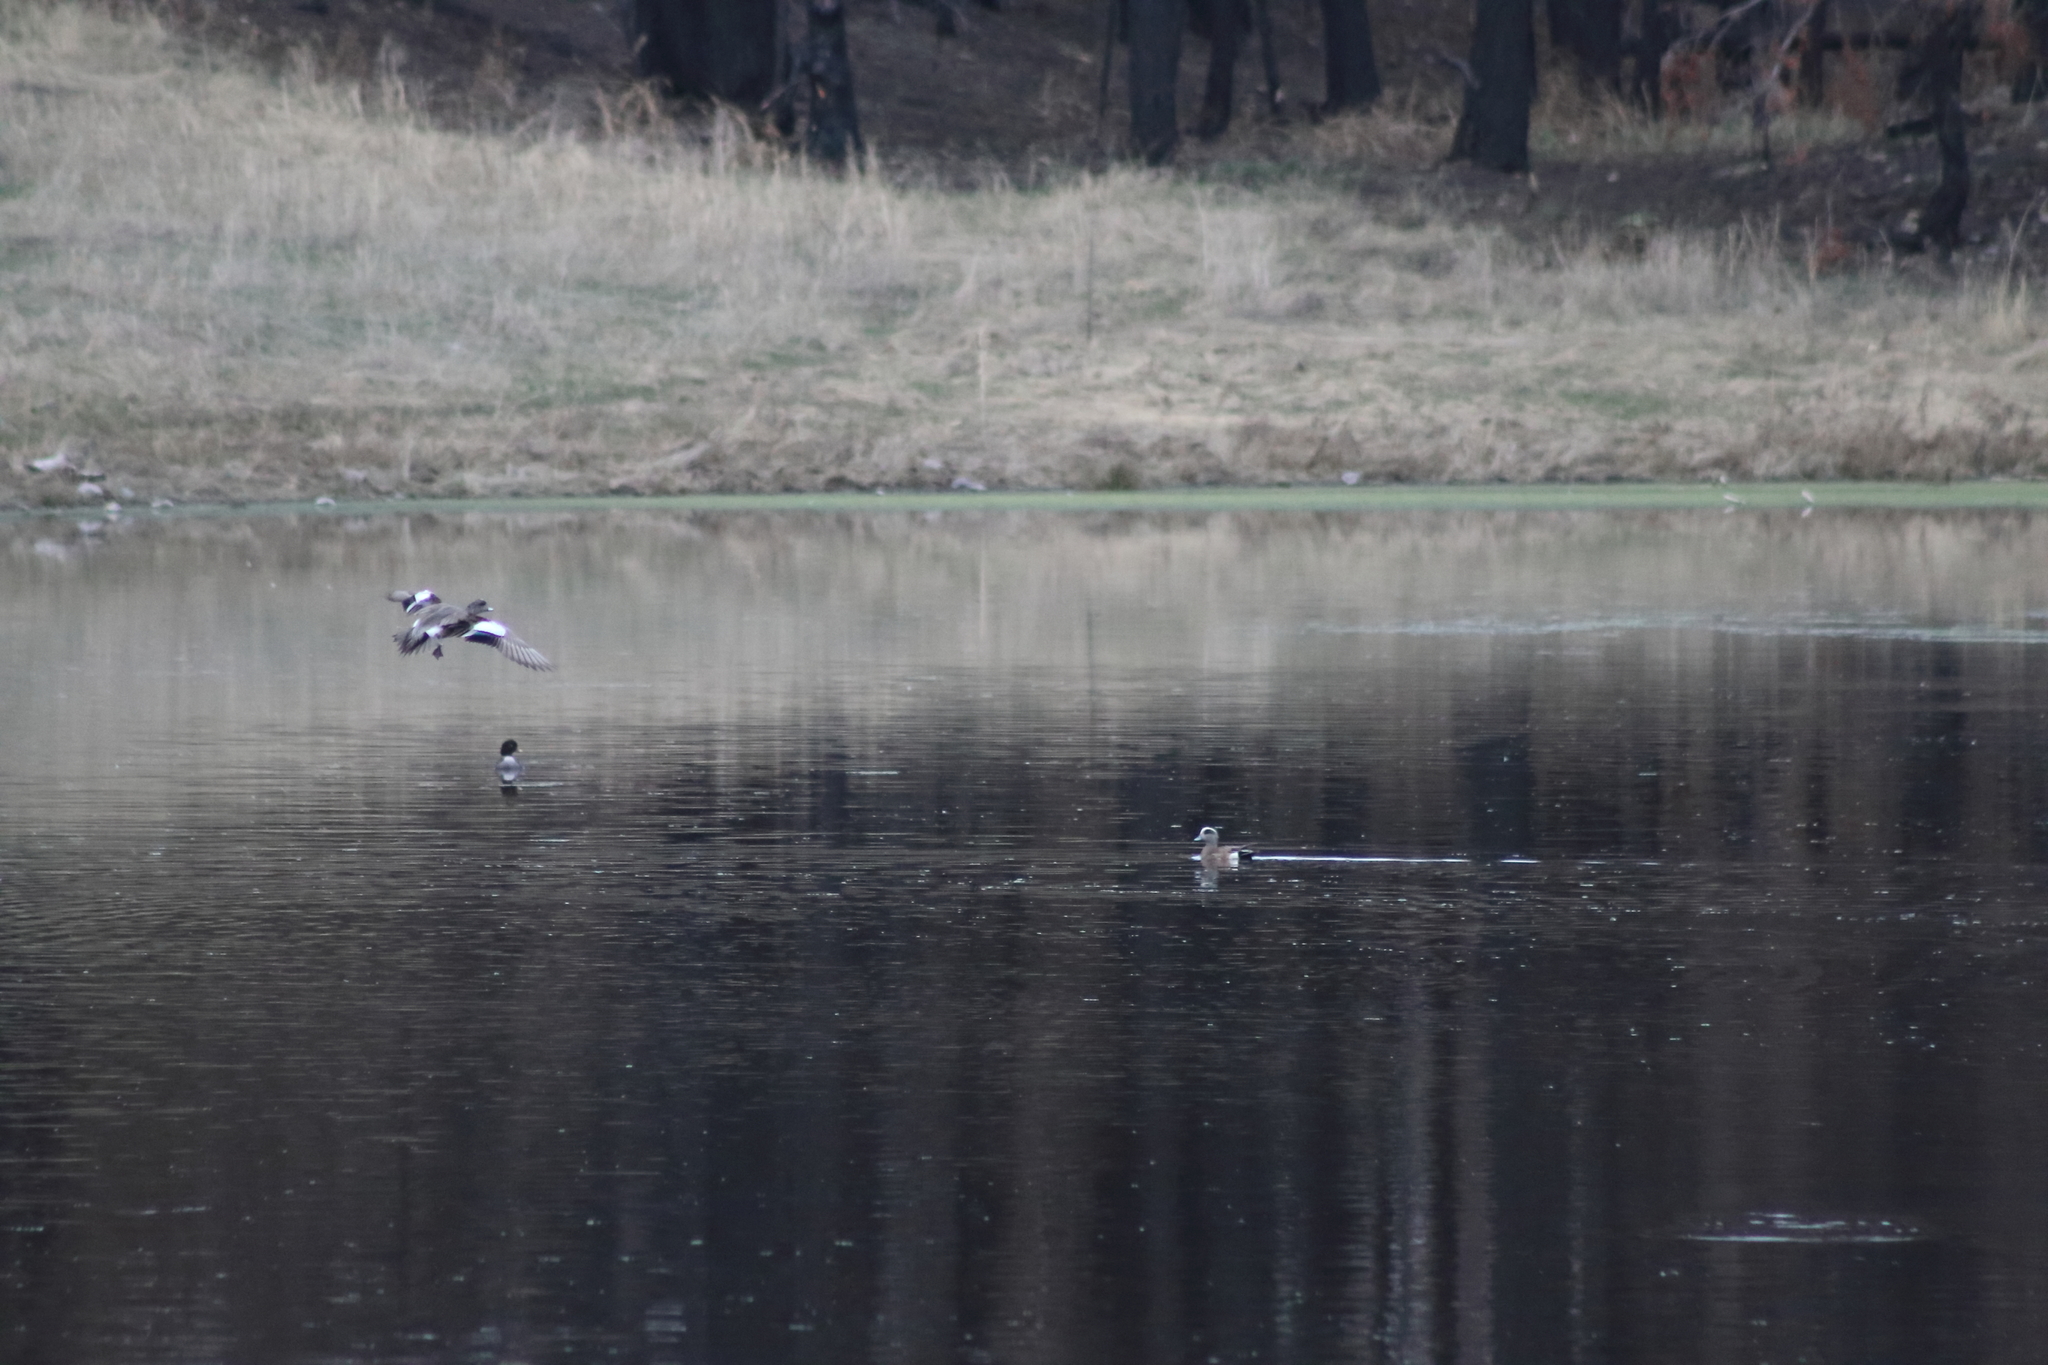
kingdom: Animalia
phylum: Chordata
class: Aves
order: Anseriformes
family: Anatidae
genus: Mareca
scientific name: Mareca americana
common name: American wigeon
